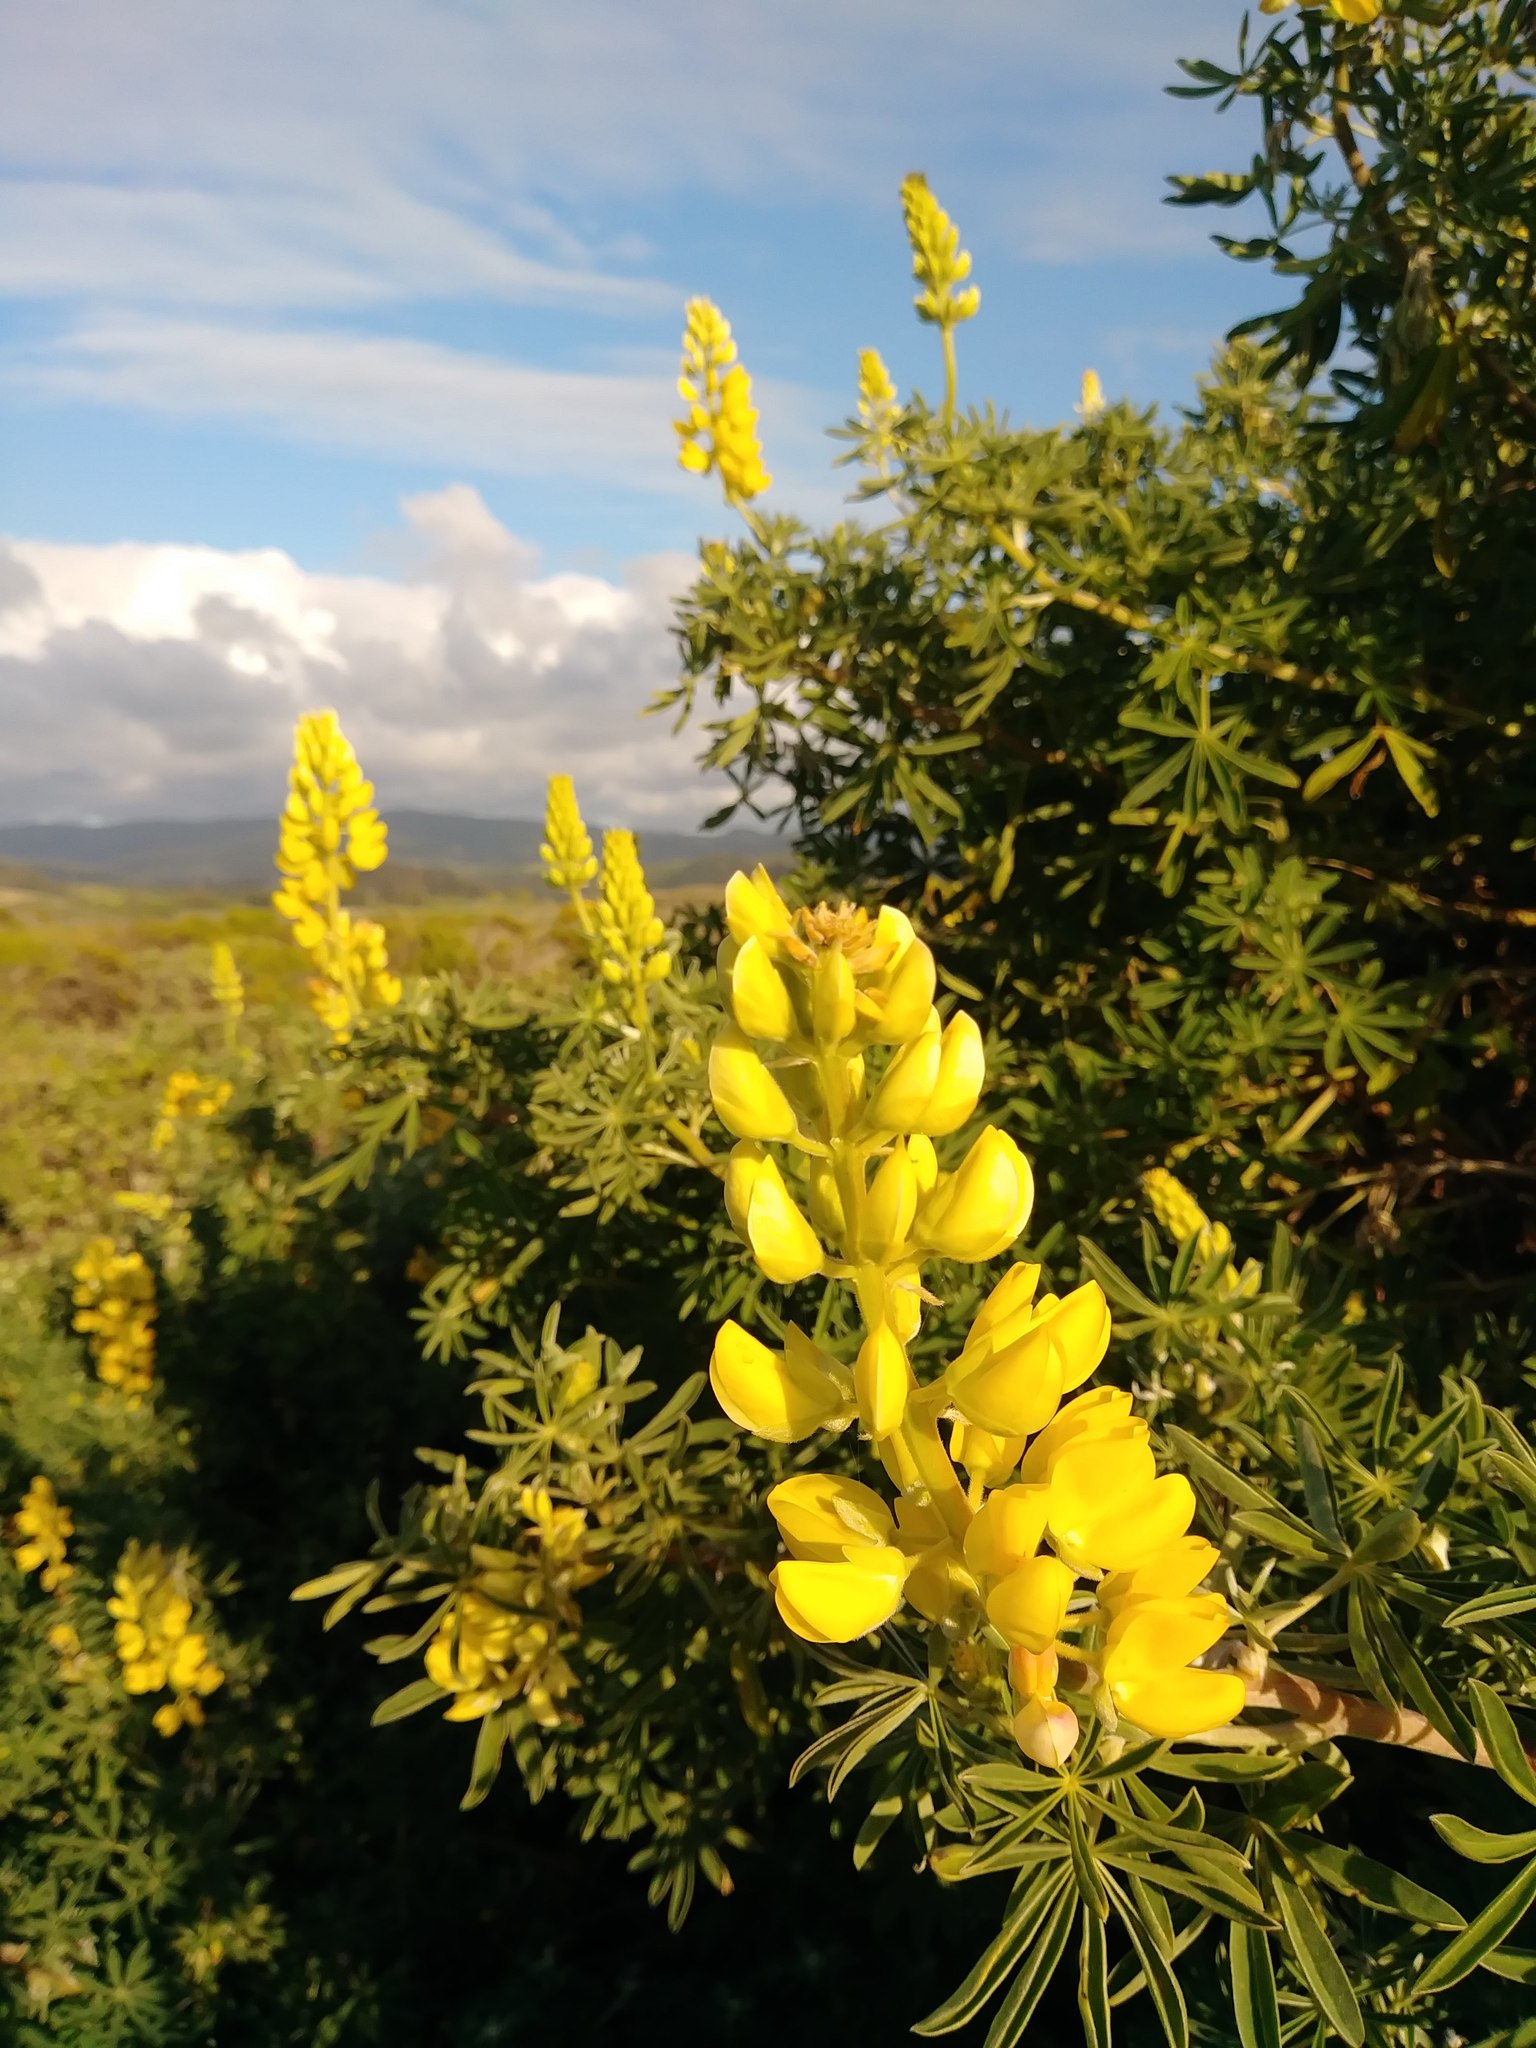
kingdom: Plantae
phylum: Tracheophyta
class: Magnoliopsida
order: Fabales
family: Fabaceae
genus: Lupinus
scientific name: Lupinus arboreus
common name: Yellow bush lupine
